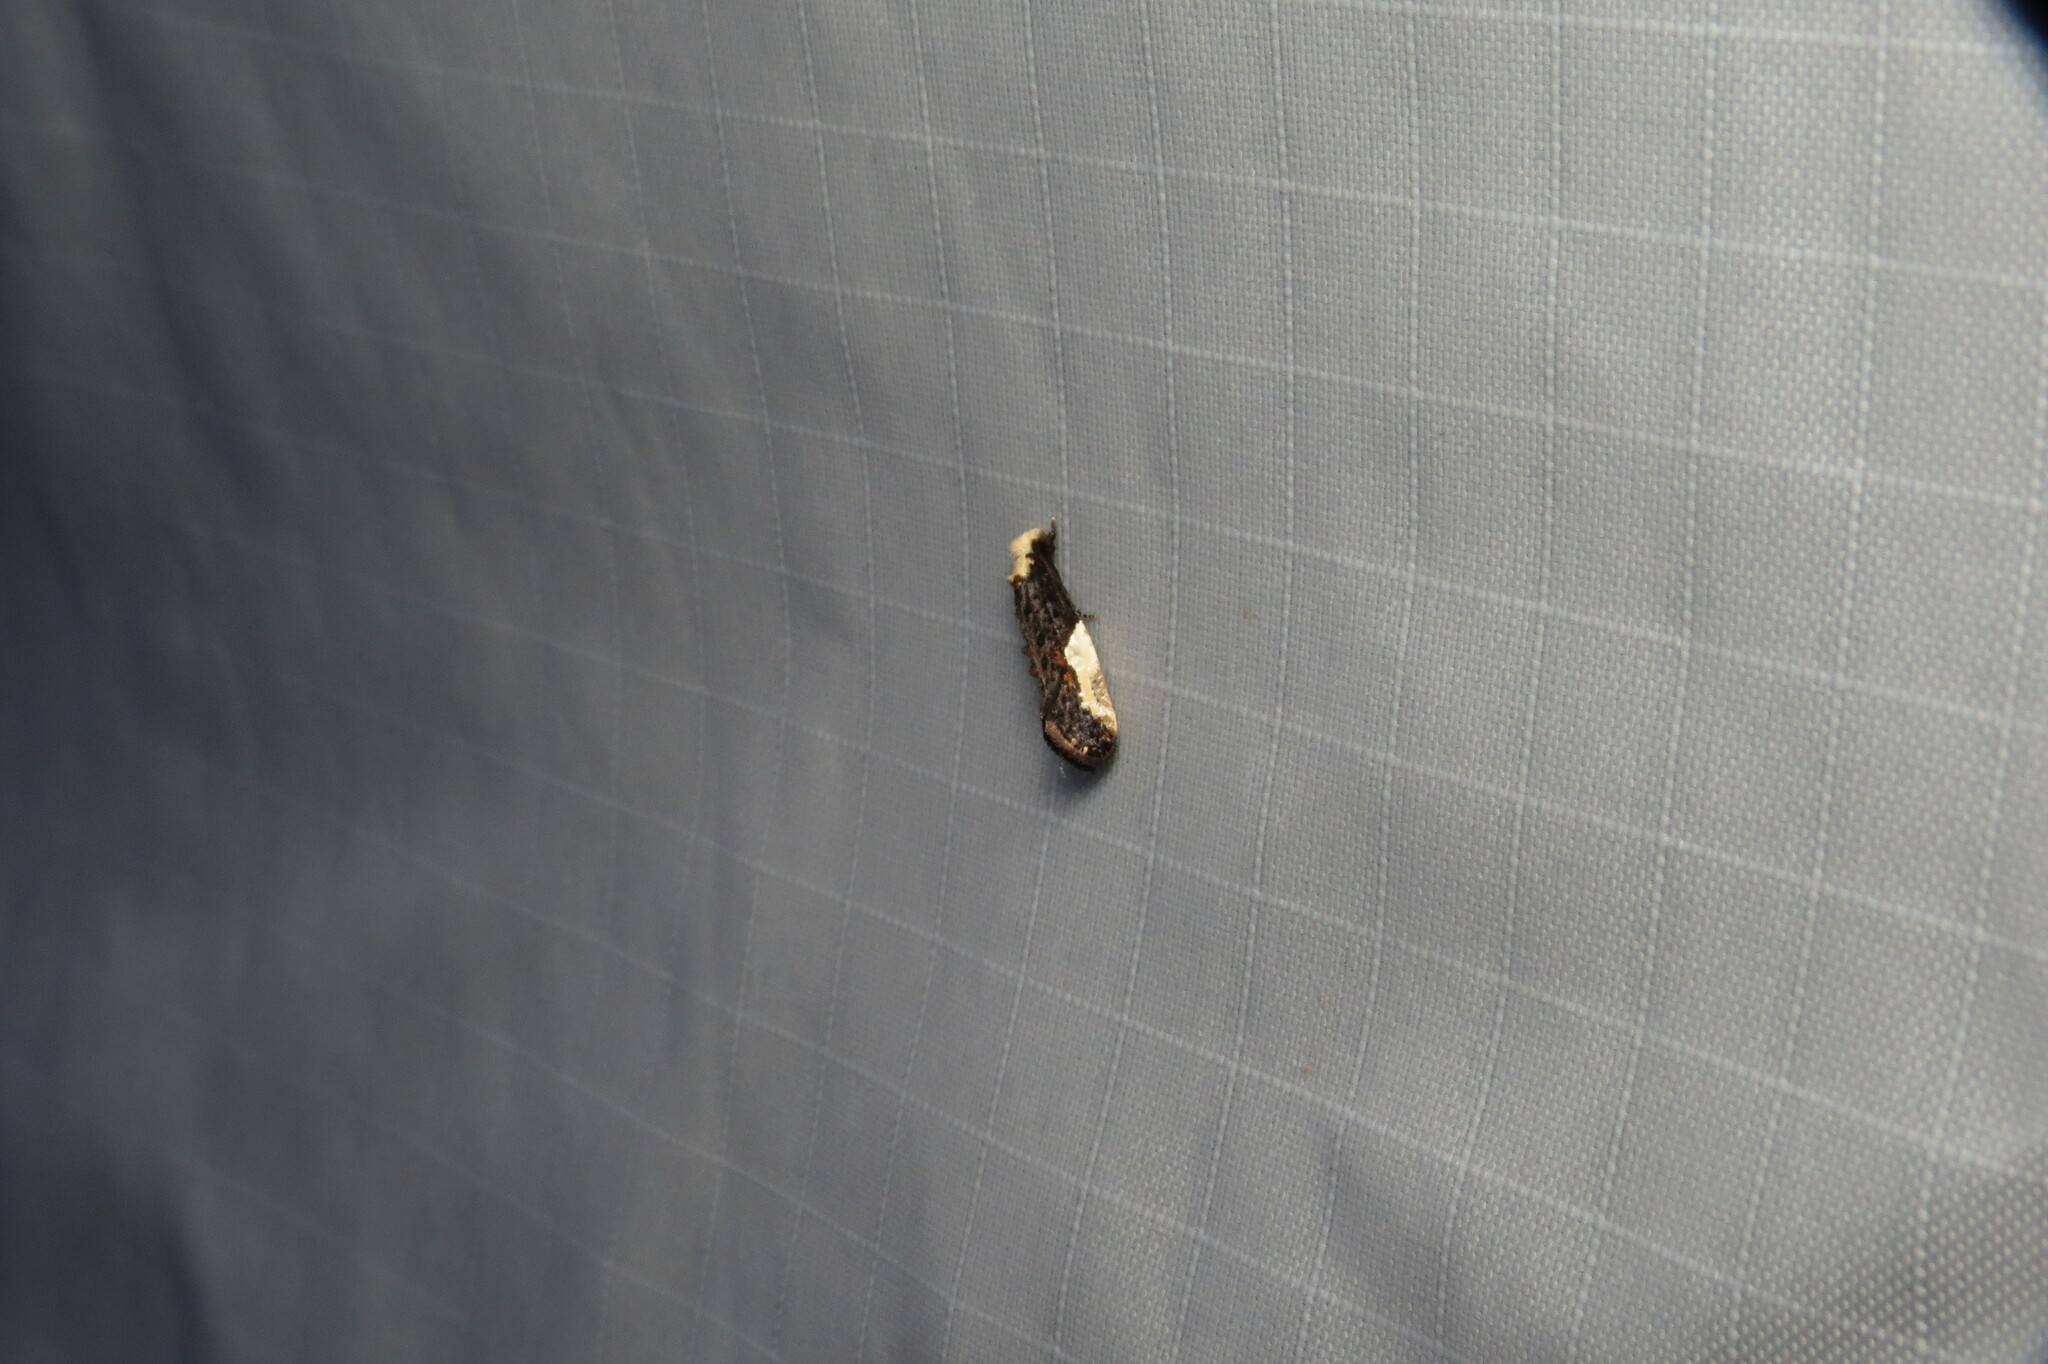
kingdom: Animalia
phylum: Arthropoda
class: Insecta
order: Lepidoptera
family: Tineidae
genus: Monopis
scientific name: Monopis longella
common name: Pavlovski's monopis moth
